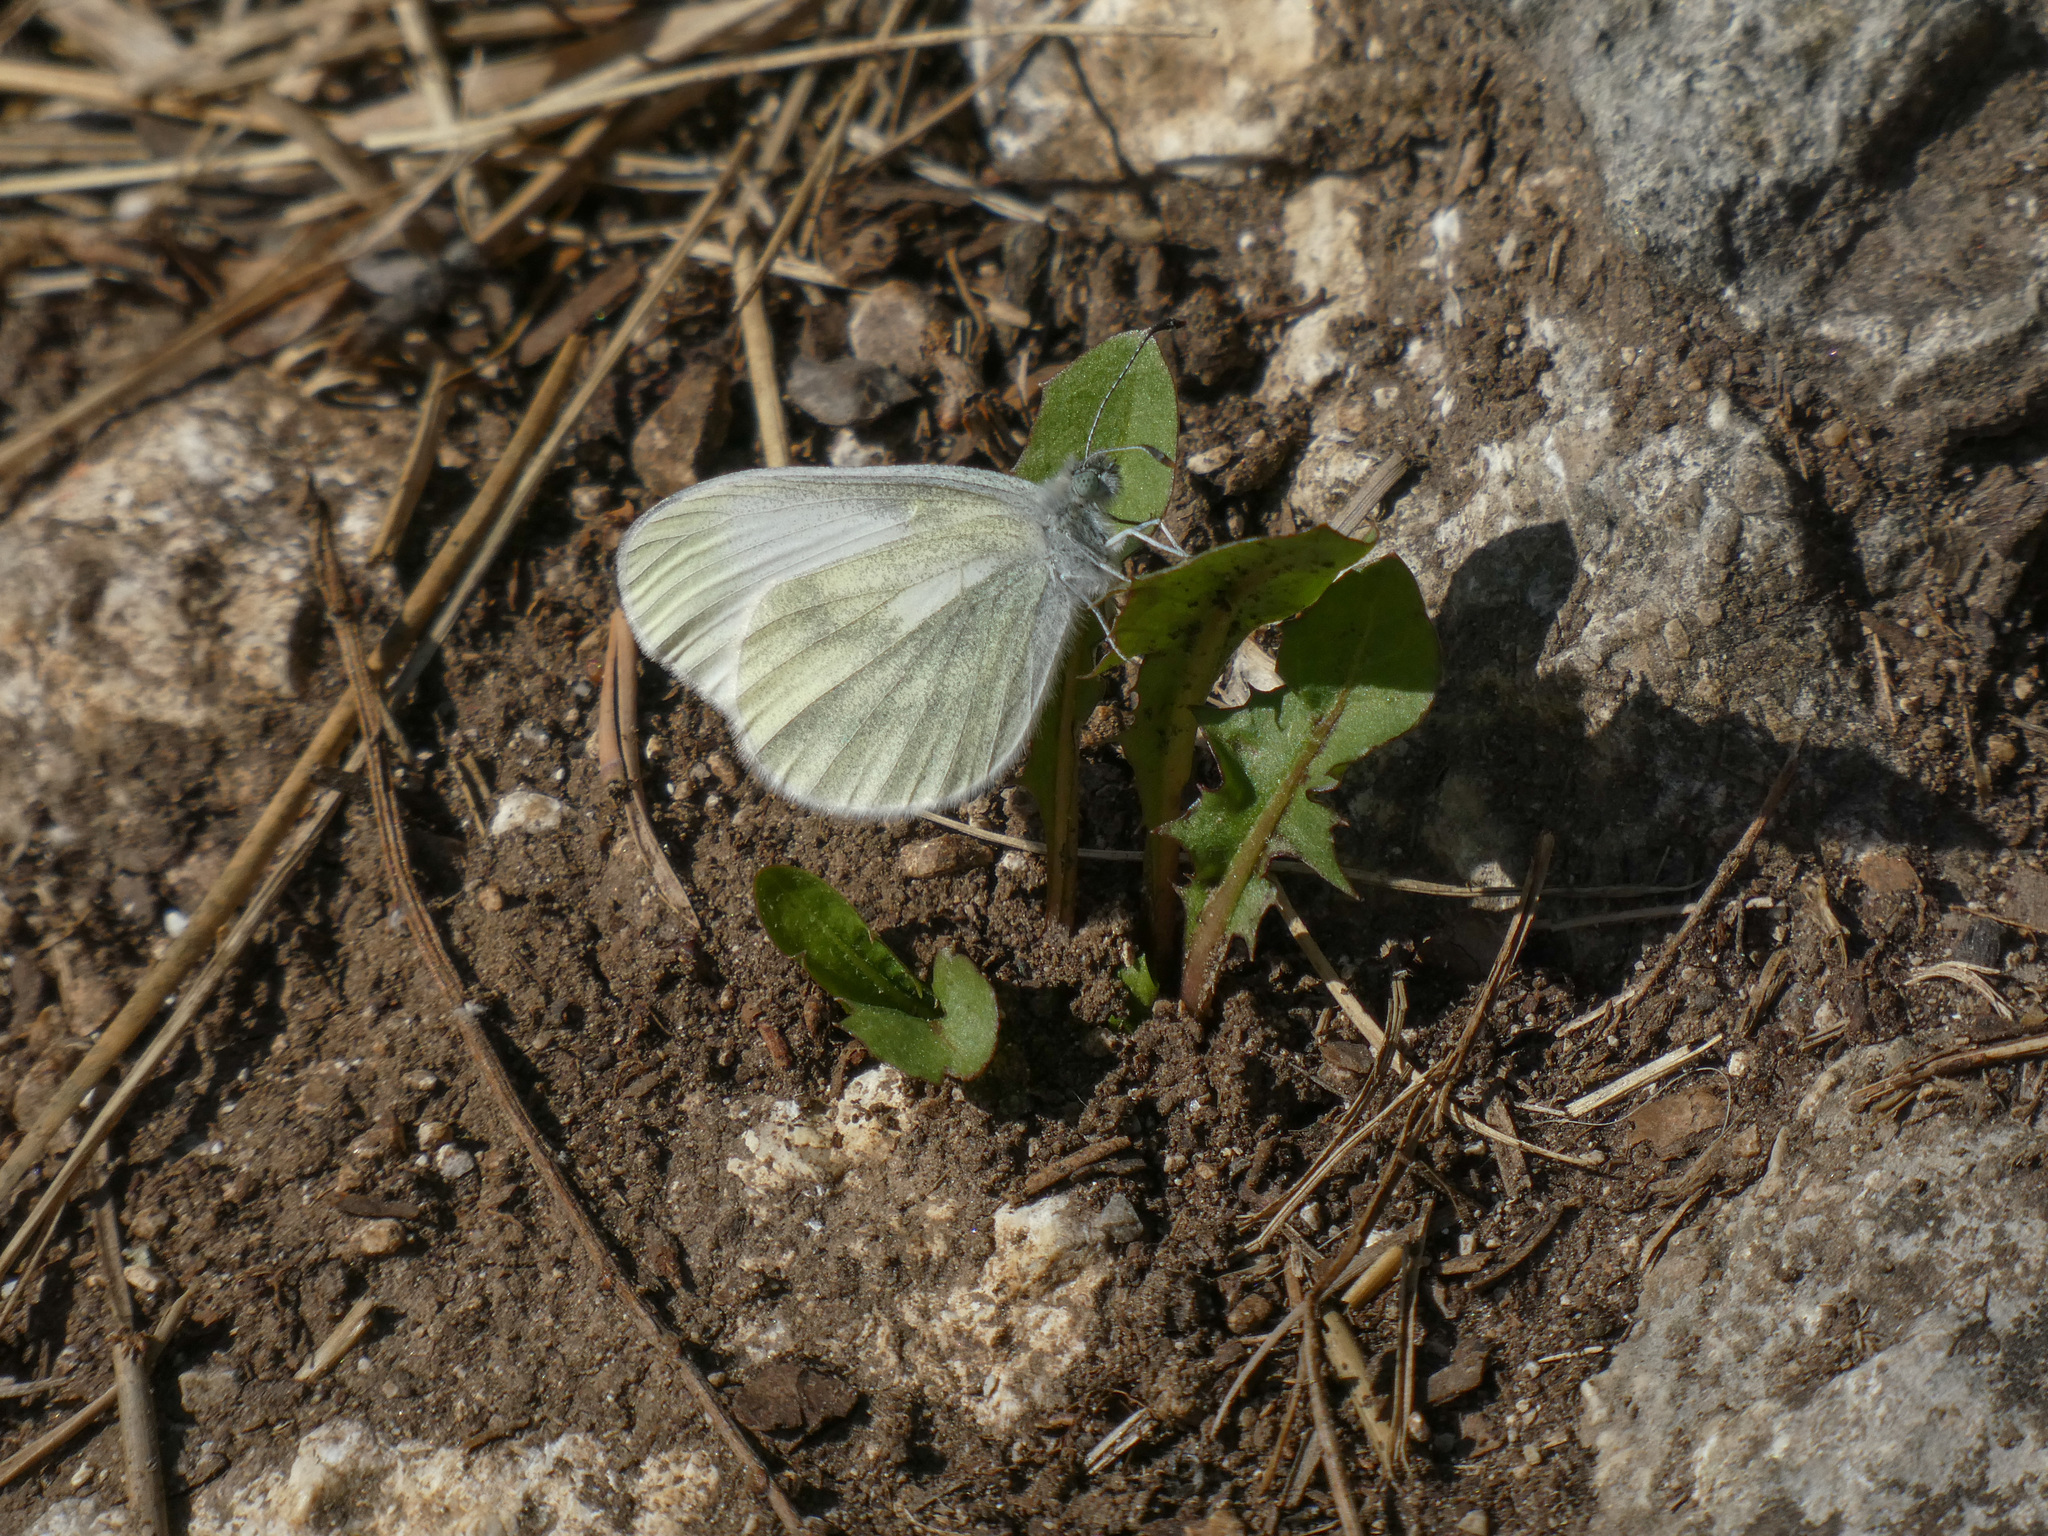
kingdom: Animalia
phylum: Arthropoda
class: Insecta
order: Lepidoptera
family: Pieridae
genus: Leptidea
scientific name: Leptidea
